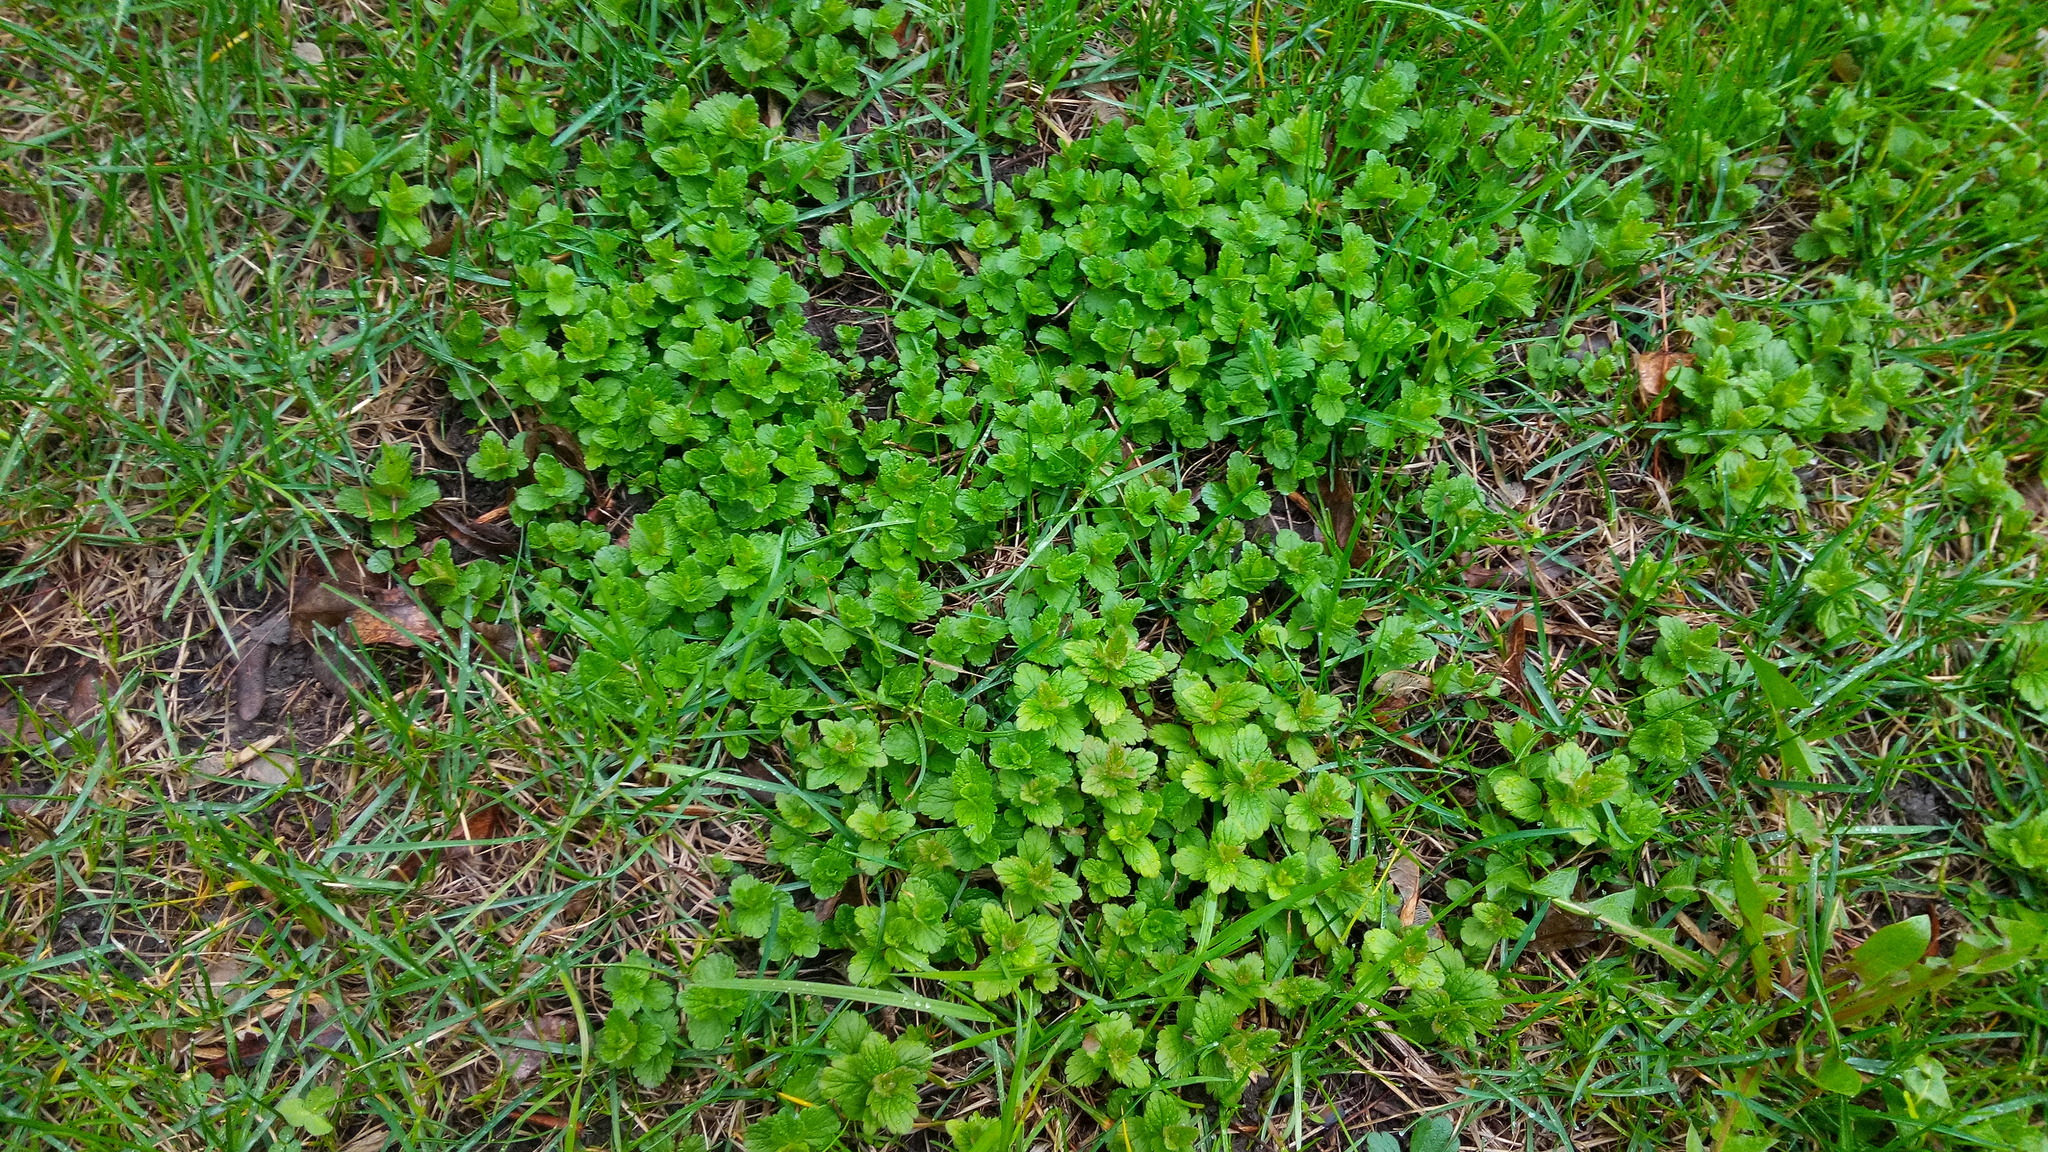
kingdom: Plantae
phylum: Tracheophyta
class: Magnoliopsida
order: Lamiales
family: Plantaginaceae
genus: Veronica
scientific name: Veronica chamaedrys
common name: Germander speedwell
